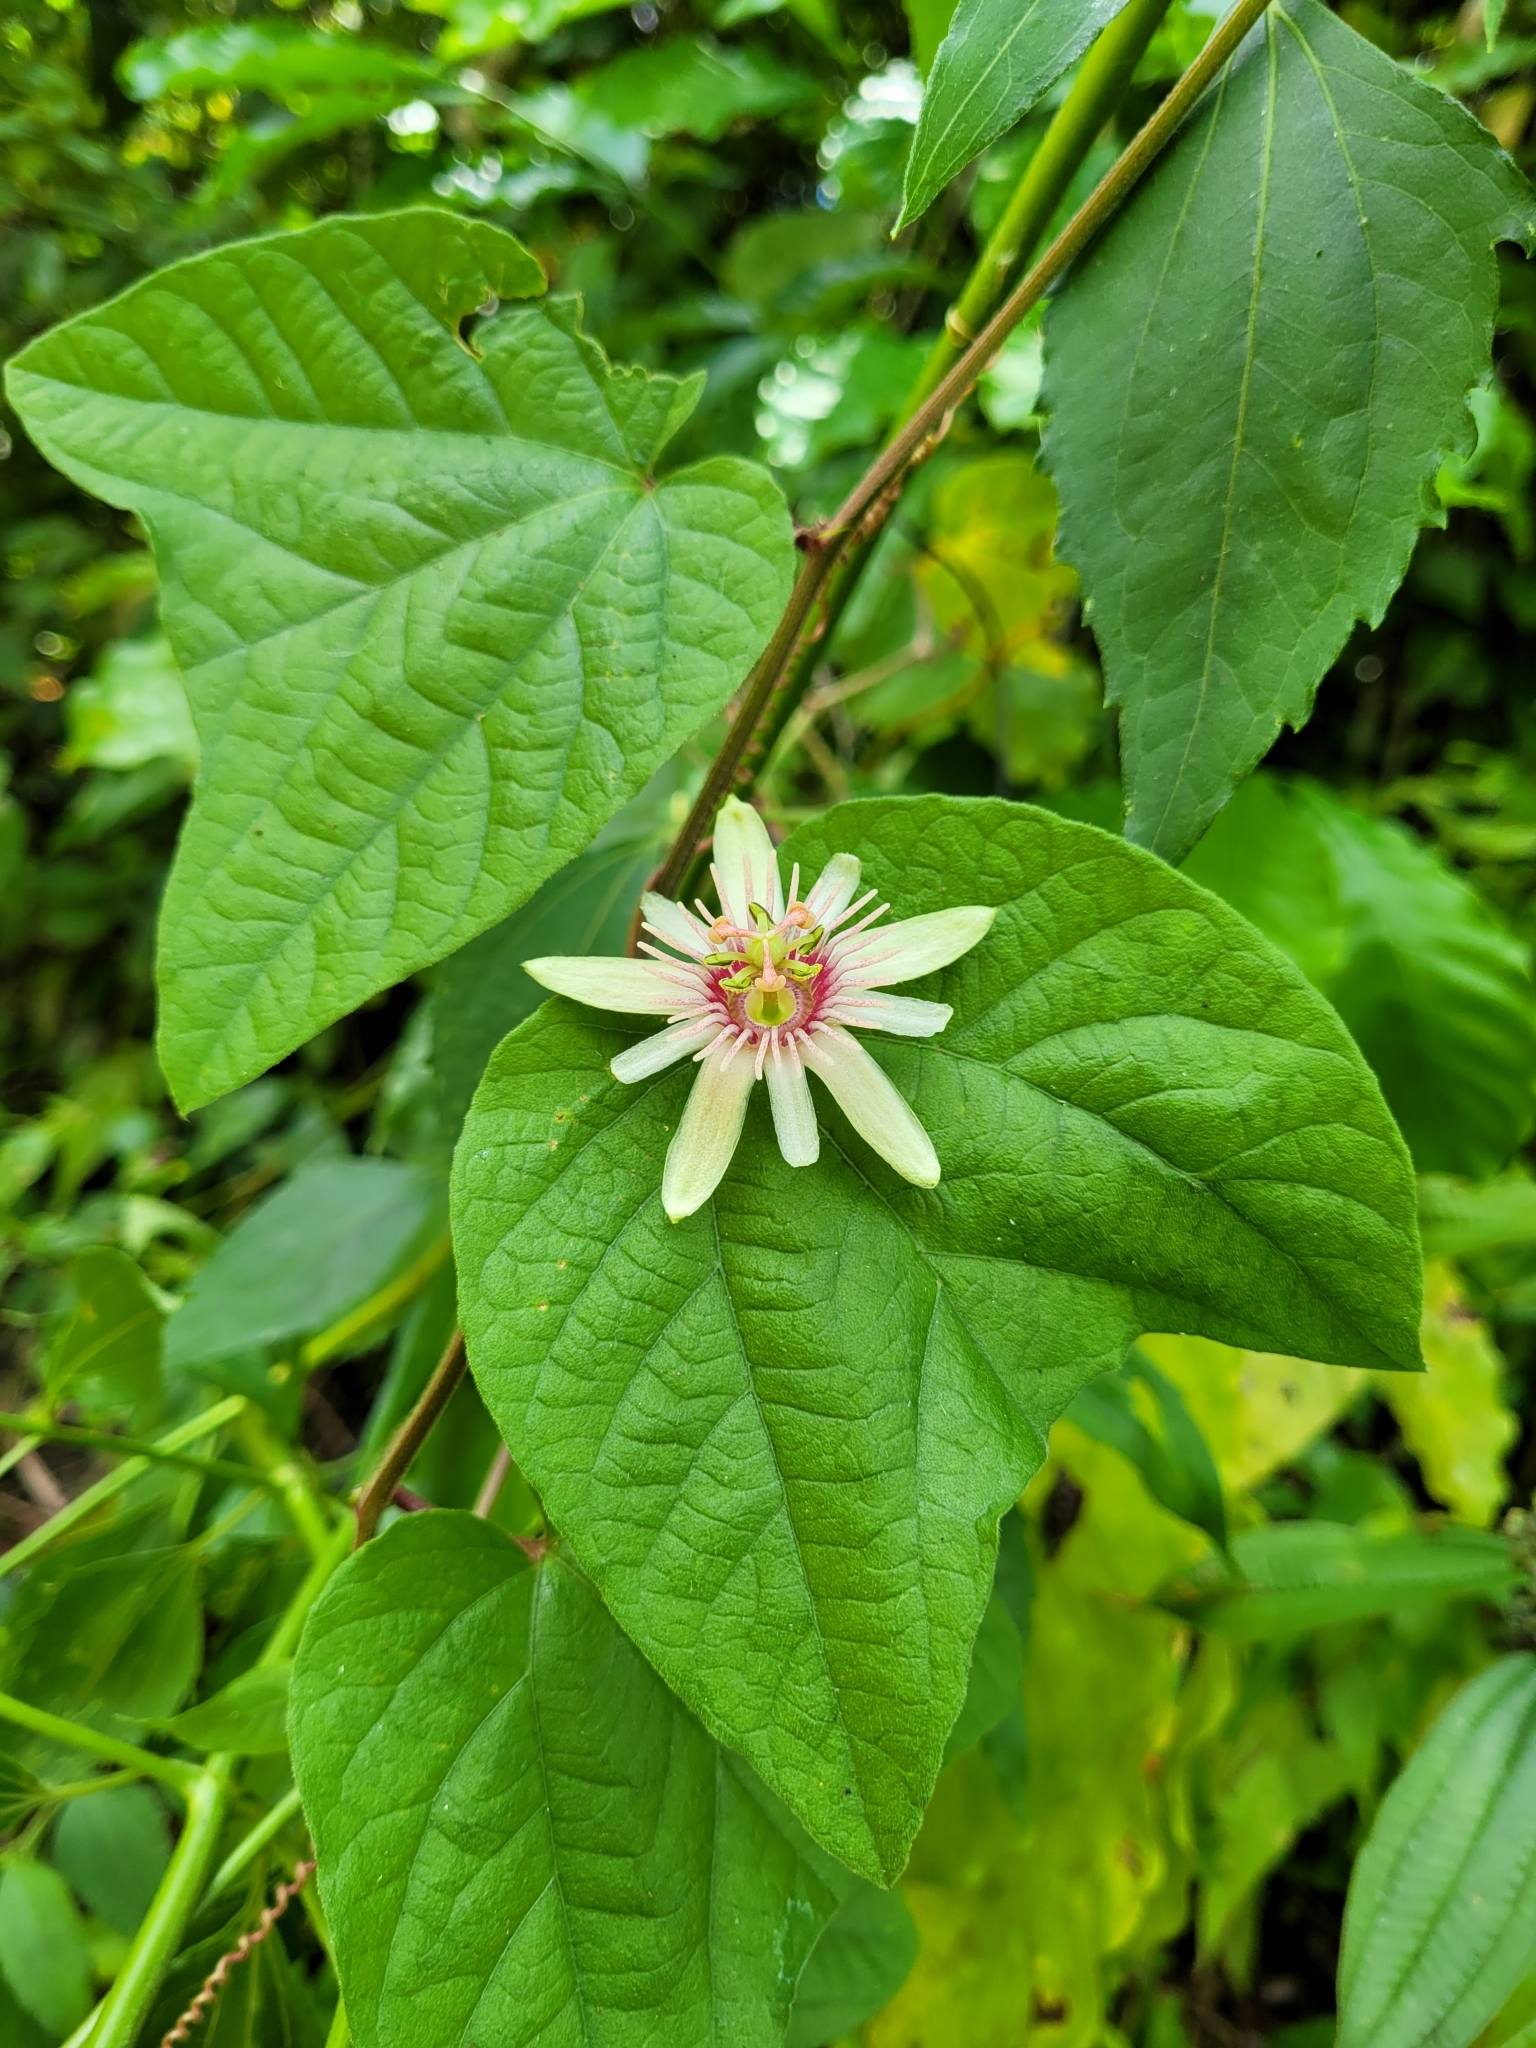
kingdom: Plantae
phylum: Tracheophyta
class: Magnoliopsida
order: Malpighiales
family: Passifloraceae
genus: Passiflora
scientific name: Passiflora rubra
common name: Snakeberry vine
